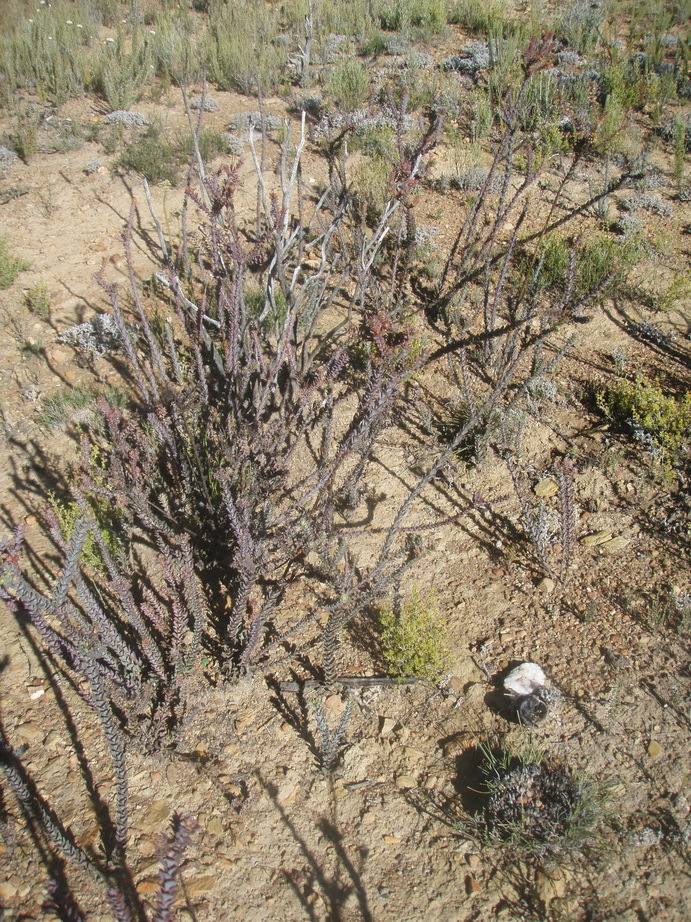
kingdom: Plantae
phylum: Tracheophyta
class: Magnoliopsida
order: Asterales
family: Asteraceae
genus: Osteospermum
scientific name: Osteospermum polygaloides
